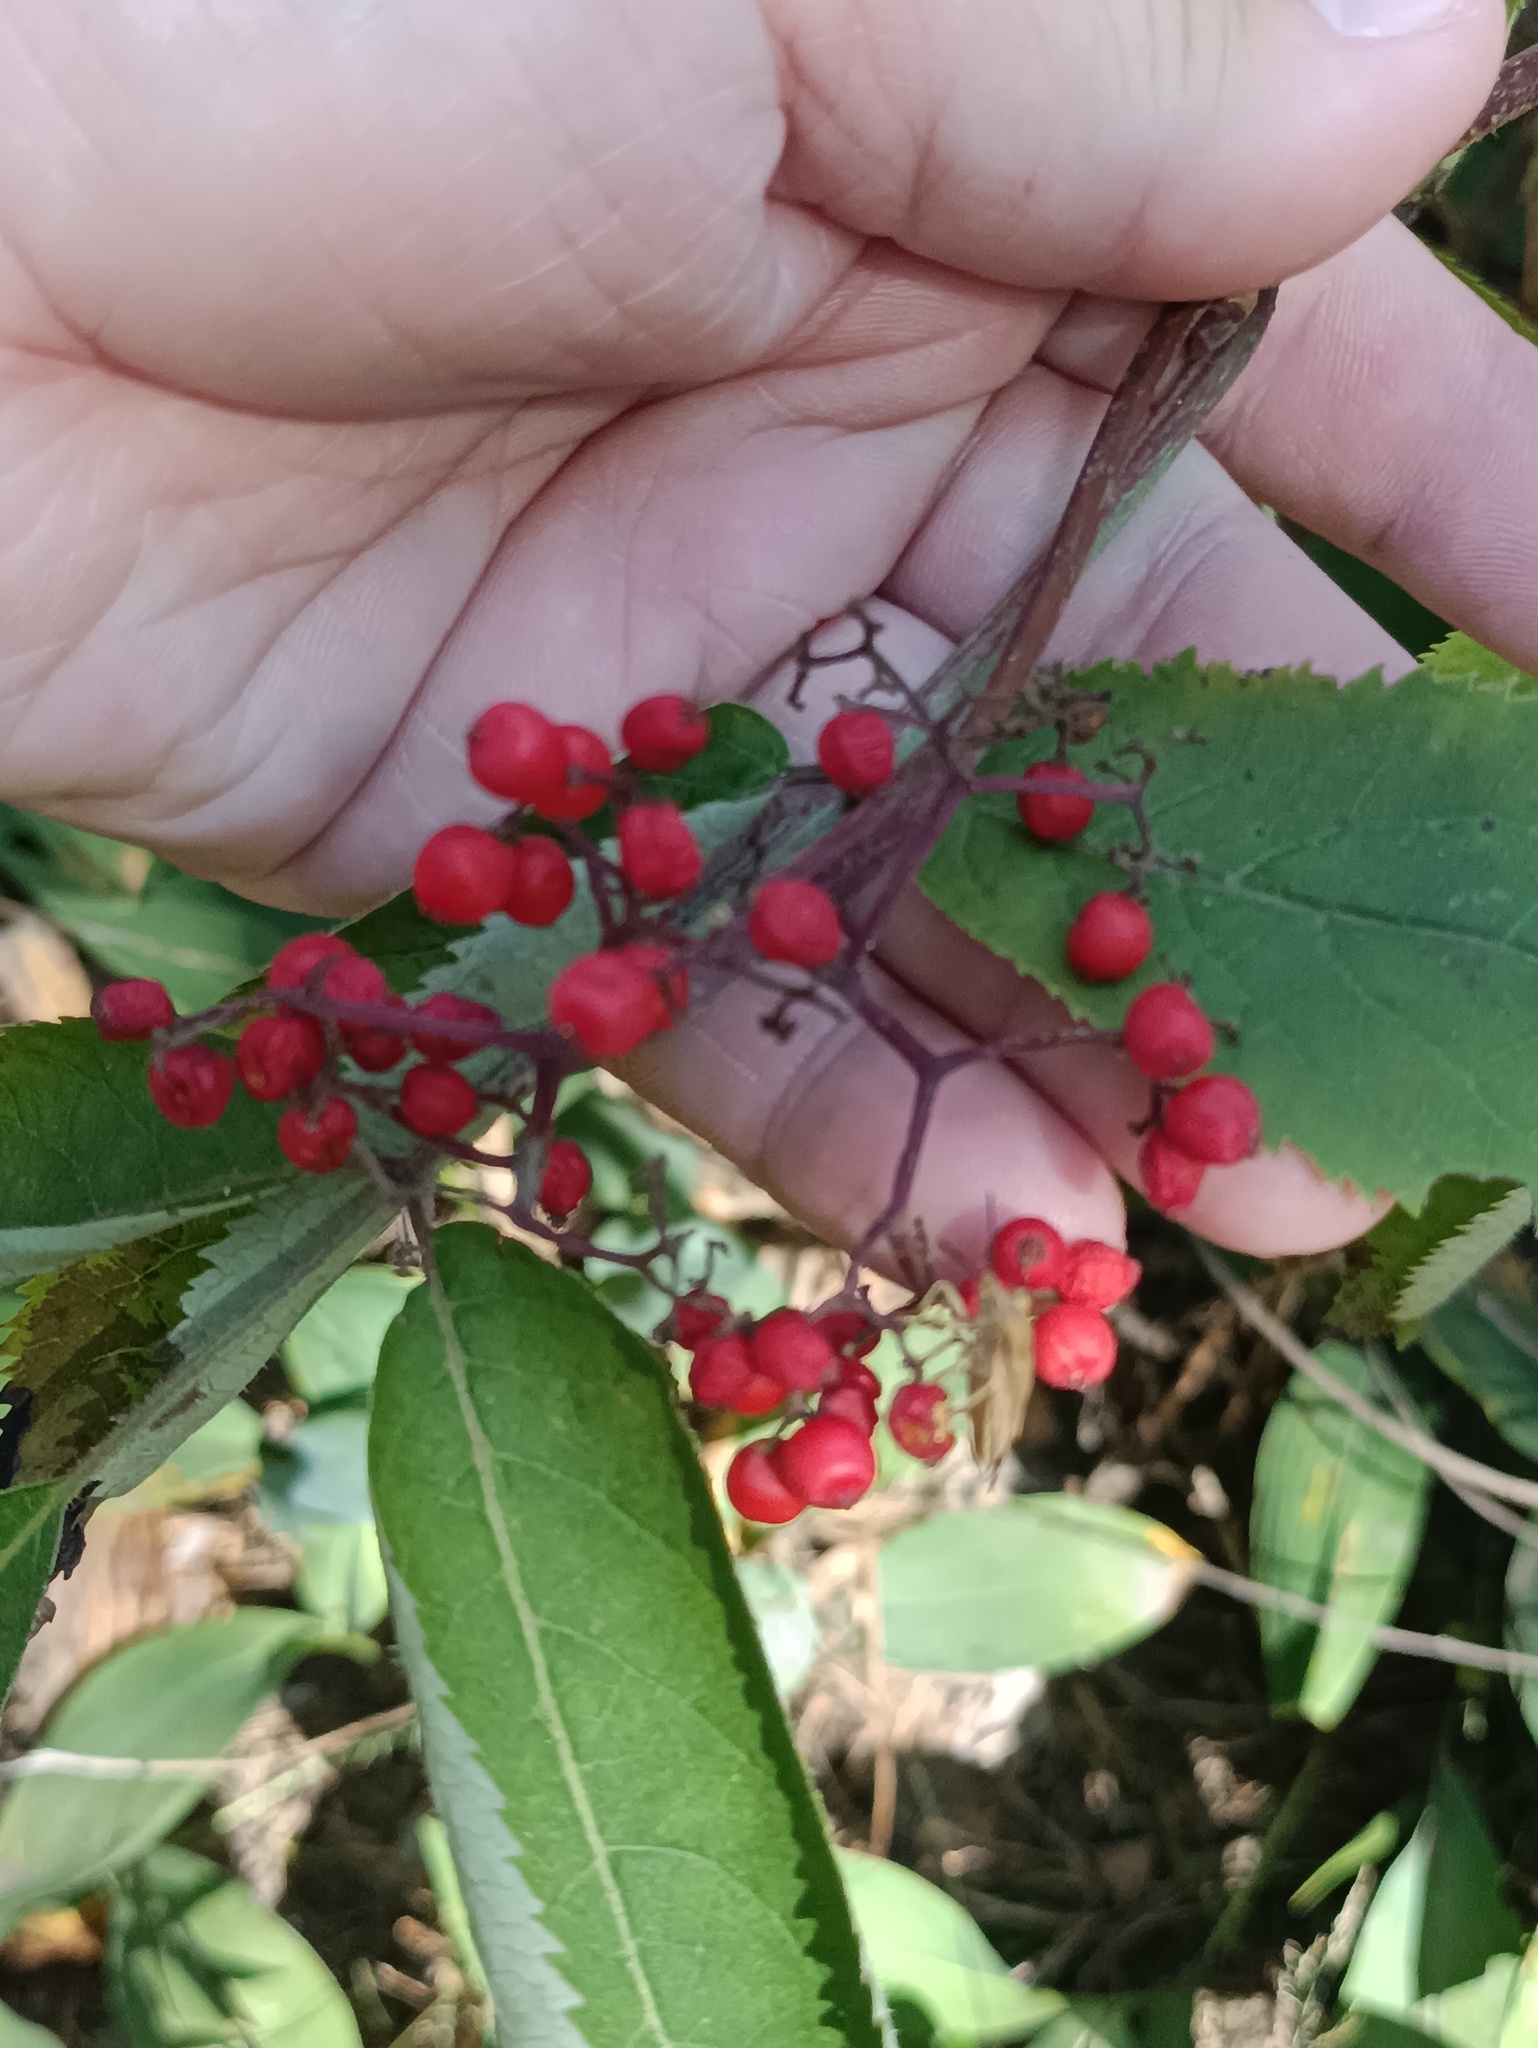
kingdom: Plantae
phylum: Tracheophyta
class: Magnoliopsida
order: Dipsacales
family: Viburnaceae
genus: Sambucus
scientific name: Sambucus racemosa
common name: Red-berried elder
